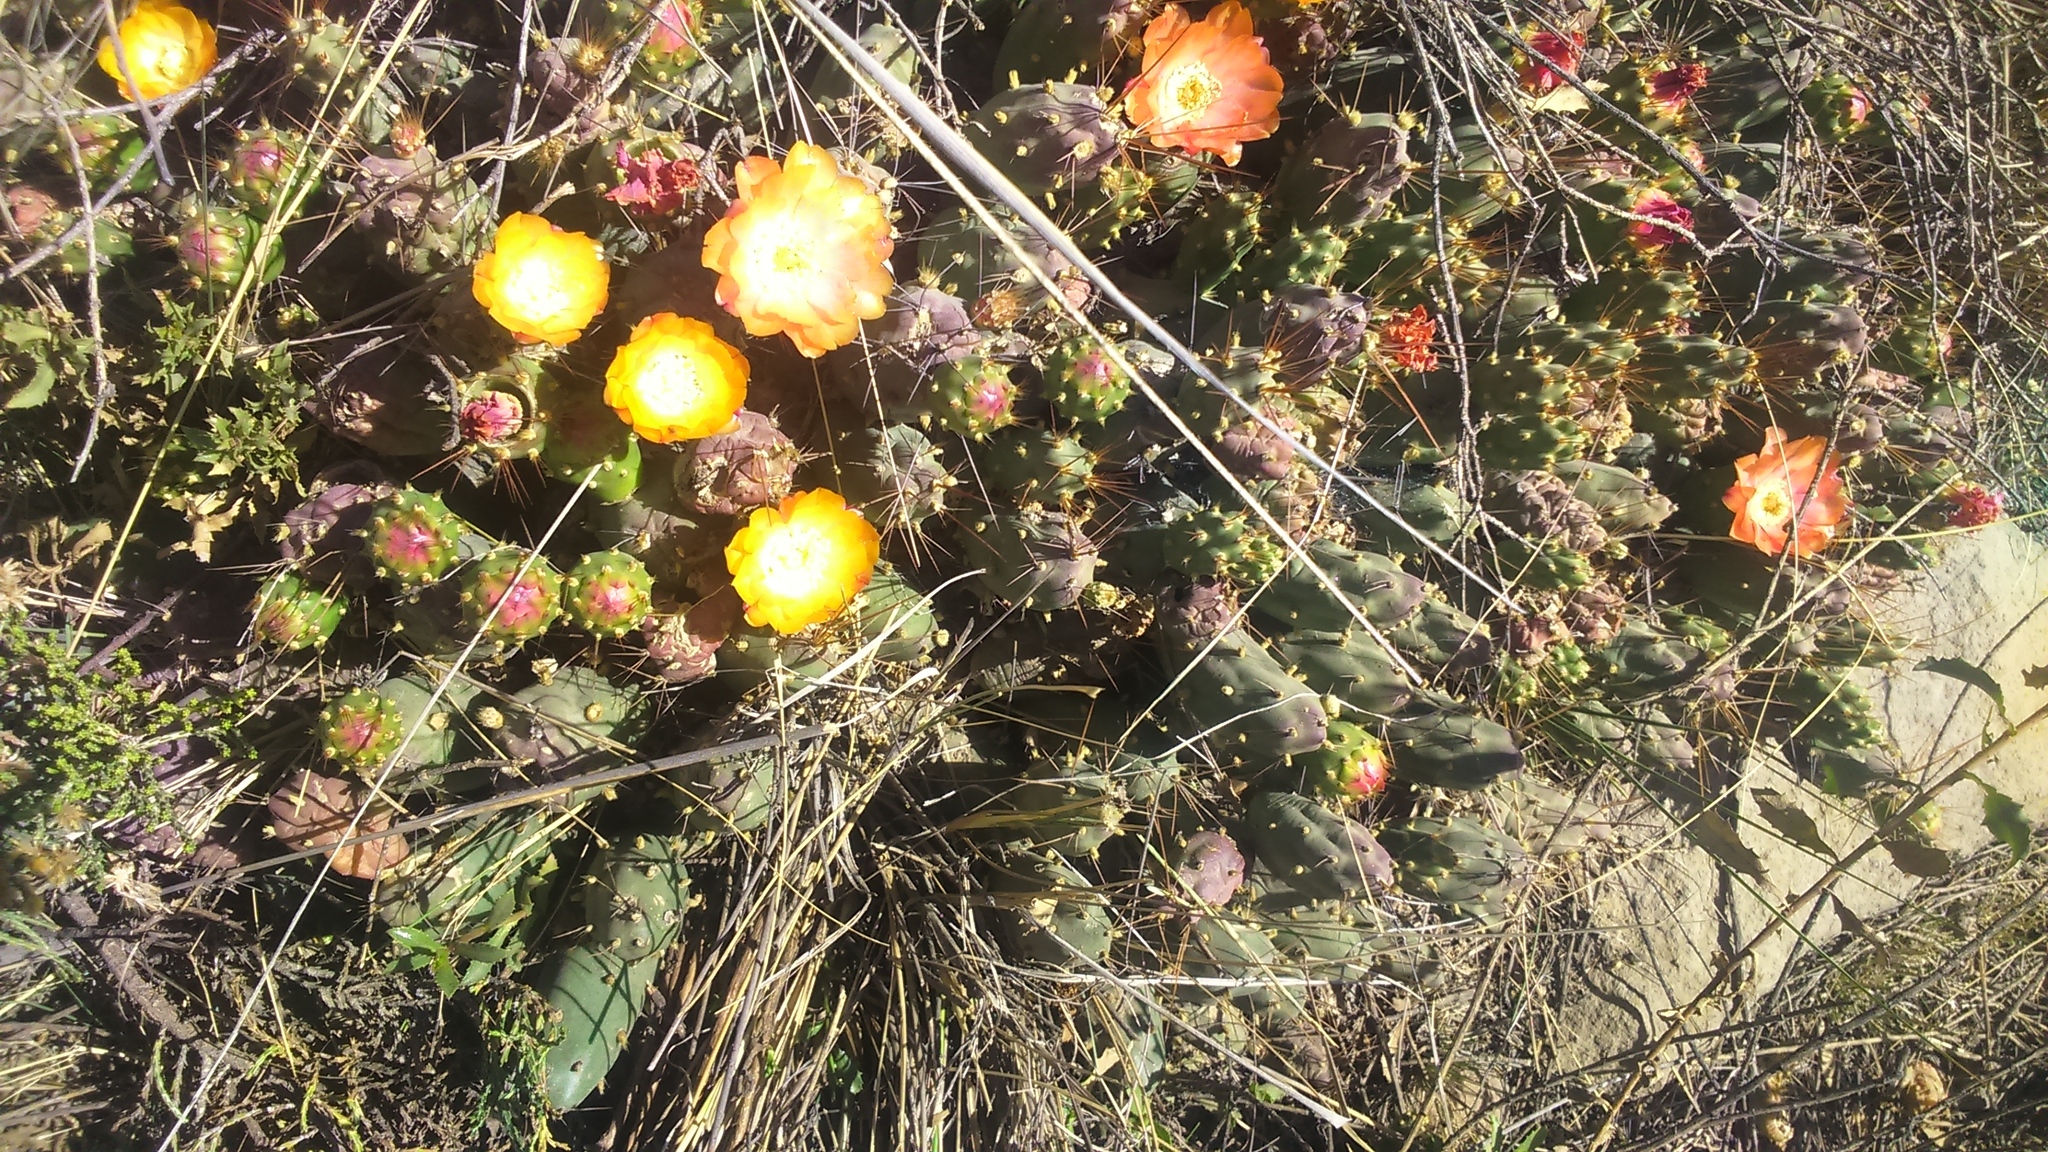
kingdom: Plantae
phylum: Tracheophyta
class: Magnoliopsida
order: Caryophyllales
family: Cactaceae
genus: Cumulopuntia
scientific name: Cumulopuntia corotilla
